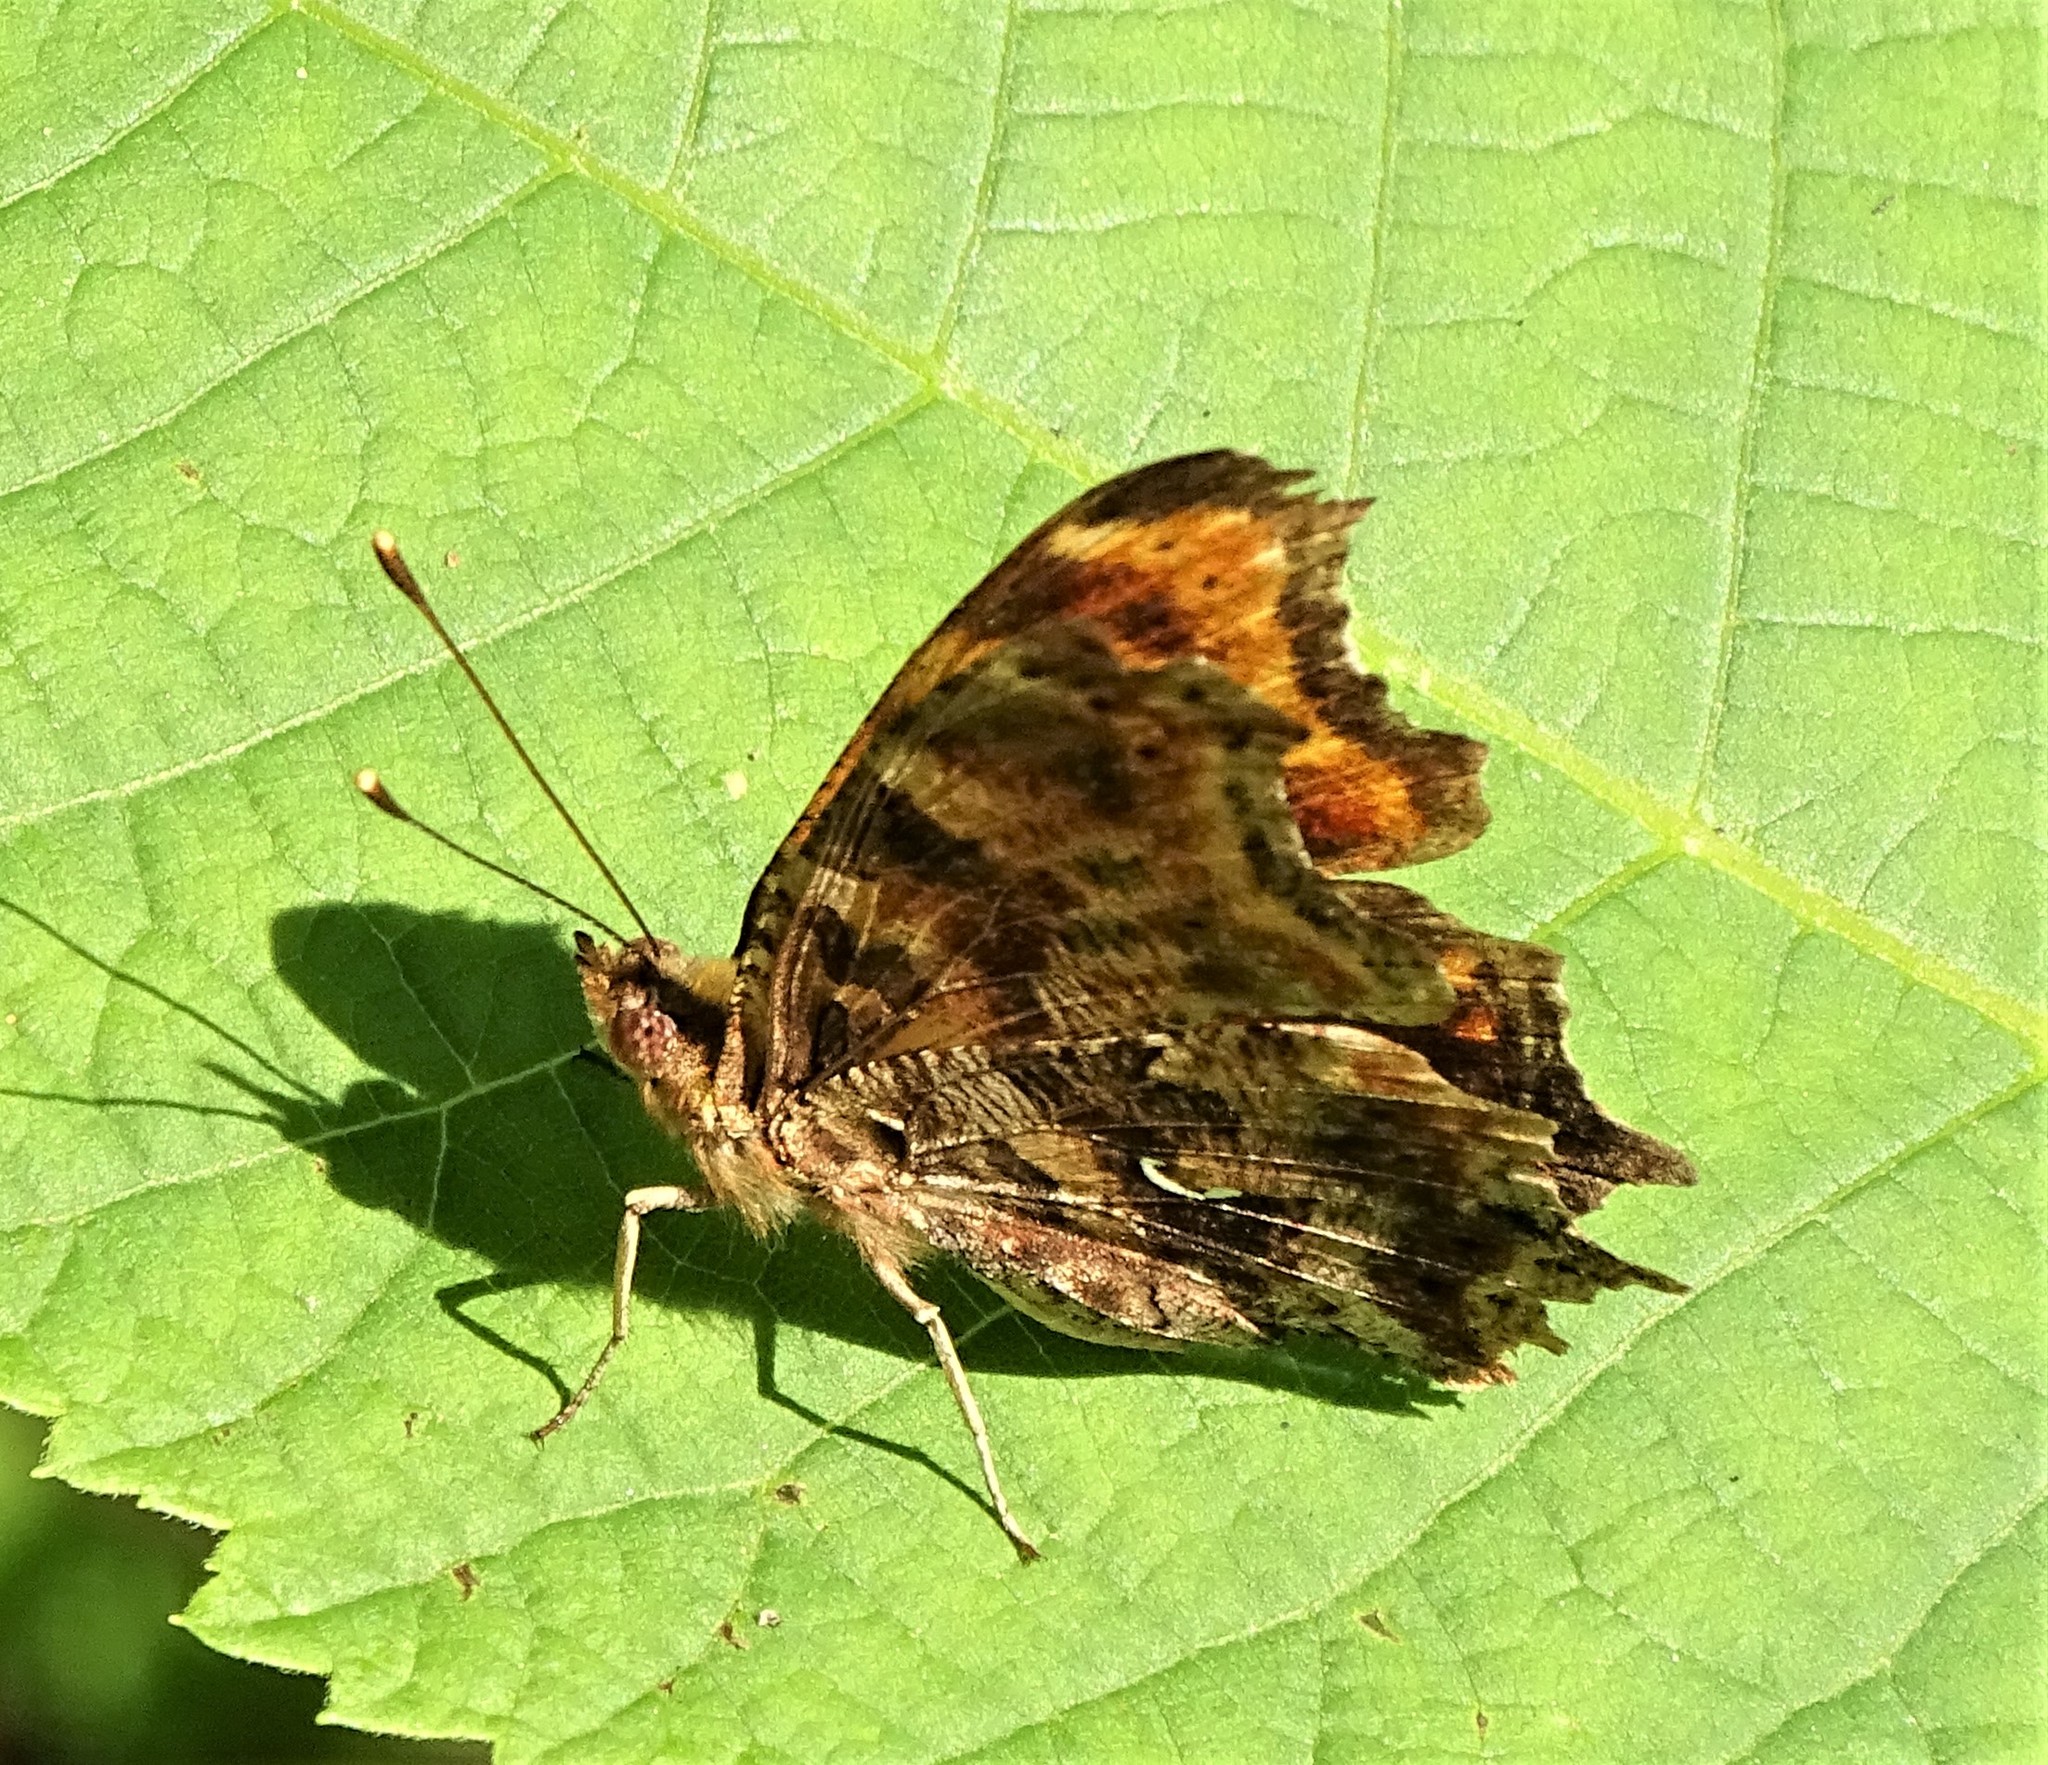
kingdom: Animalia
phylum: Arthropoda
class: Insecta
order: Lepidoptera
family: Nymphalidae
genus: Polygonia
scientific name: Polygonia comma
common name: Eastern comma
